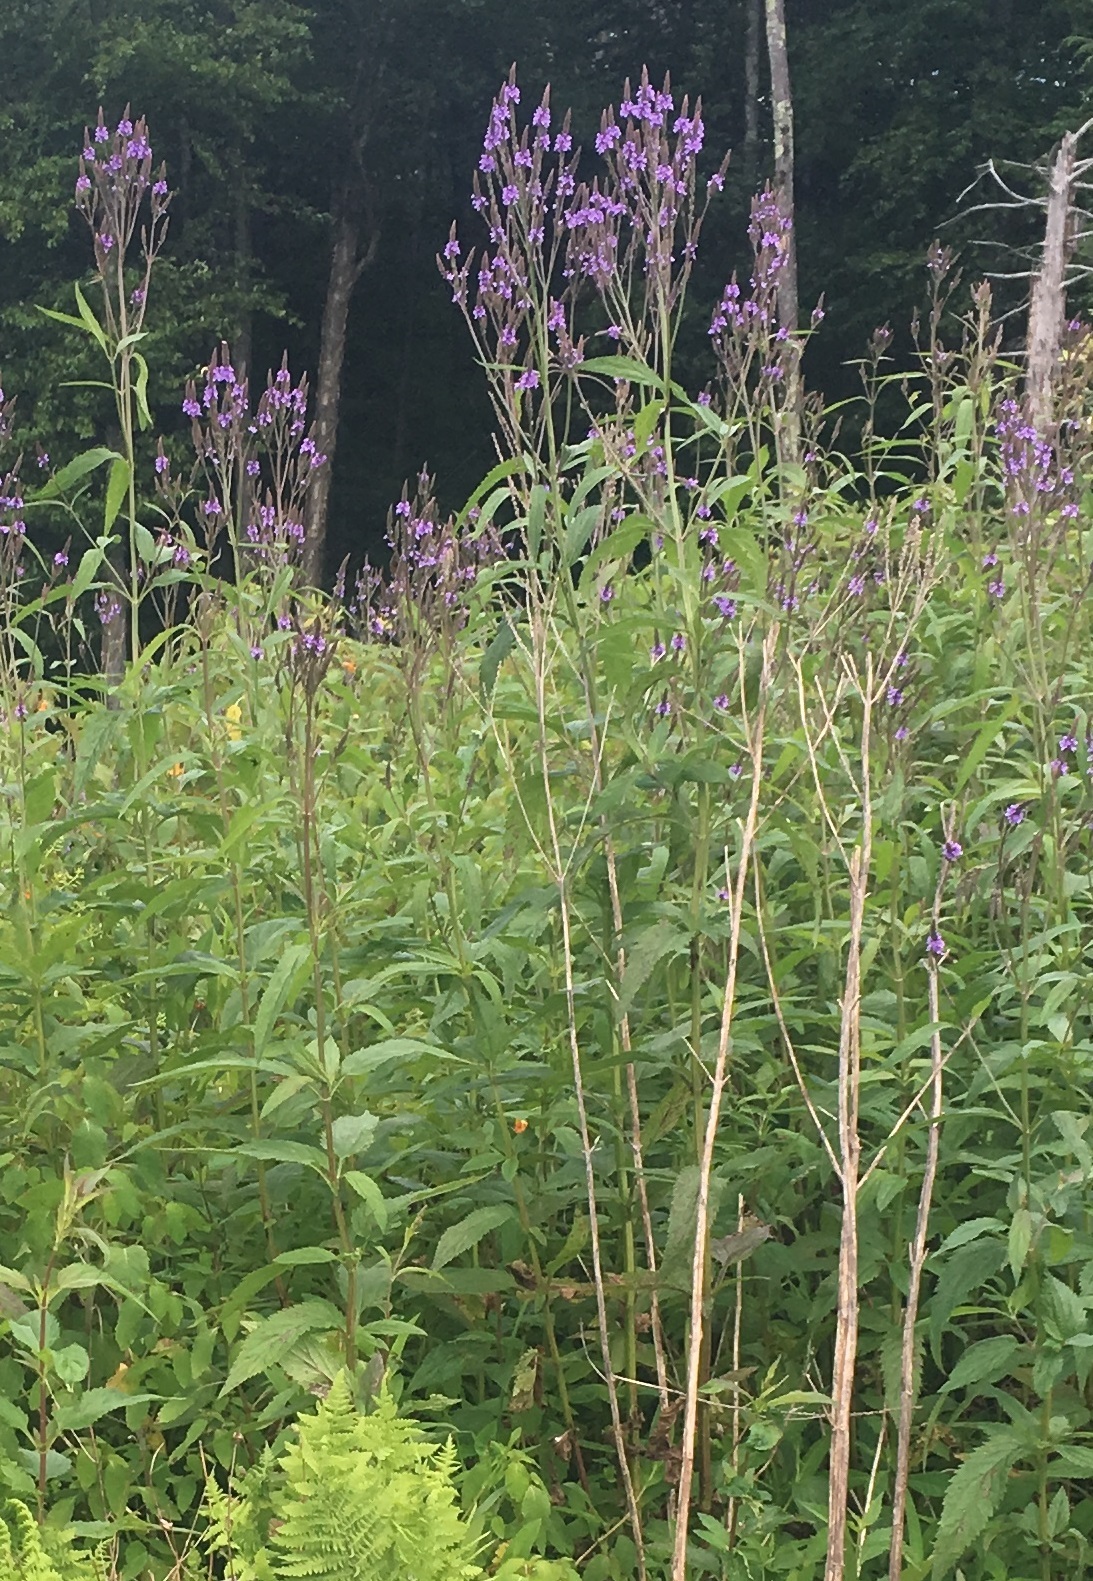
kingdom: Plantae
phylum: Tracheophyta
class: Magnoliopsida
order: Lamiales
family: Verbenaceae
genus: Verbena
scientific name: Verbena hastata
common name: American blue vervain
